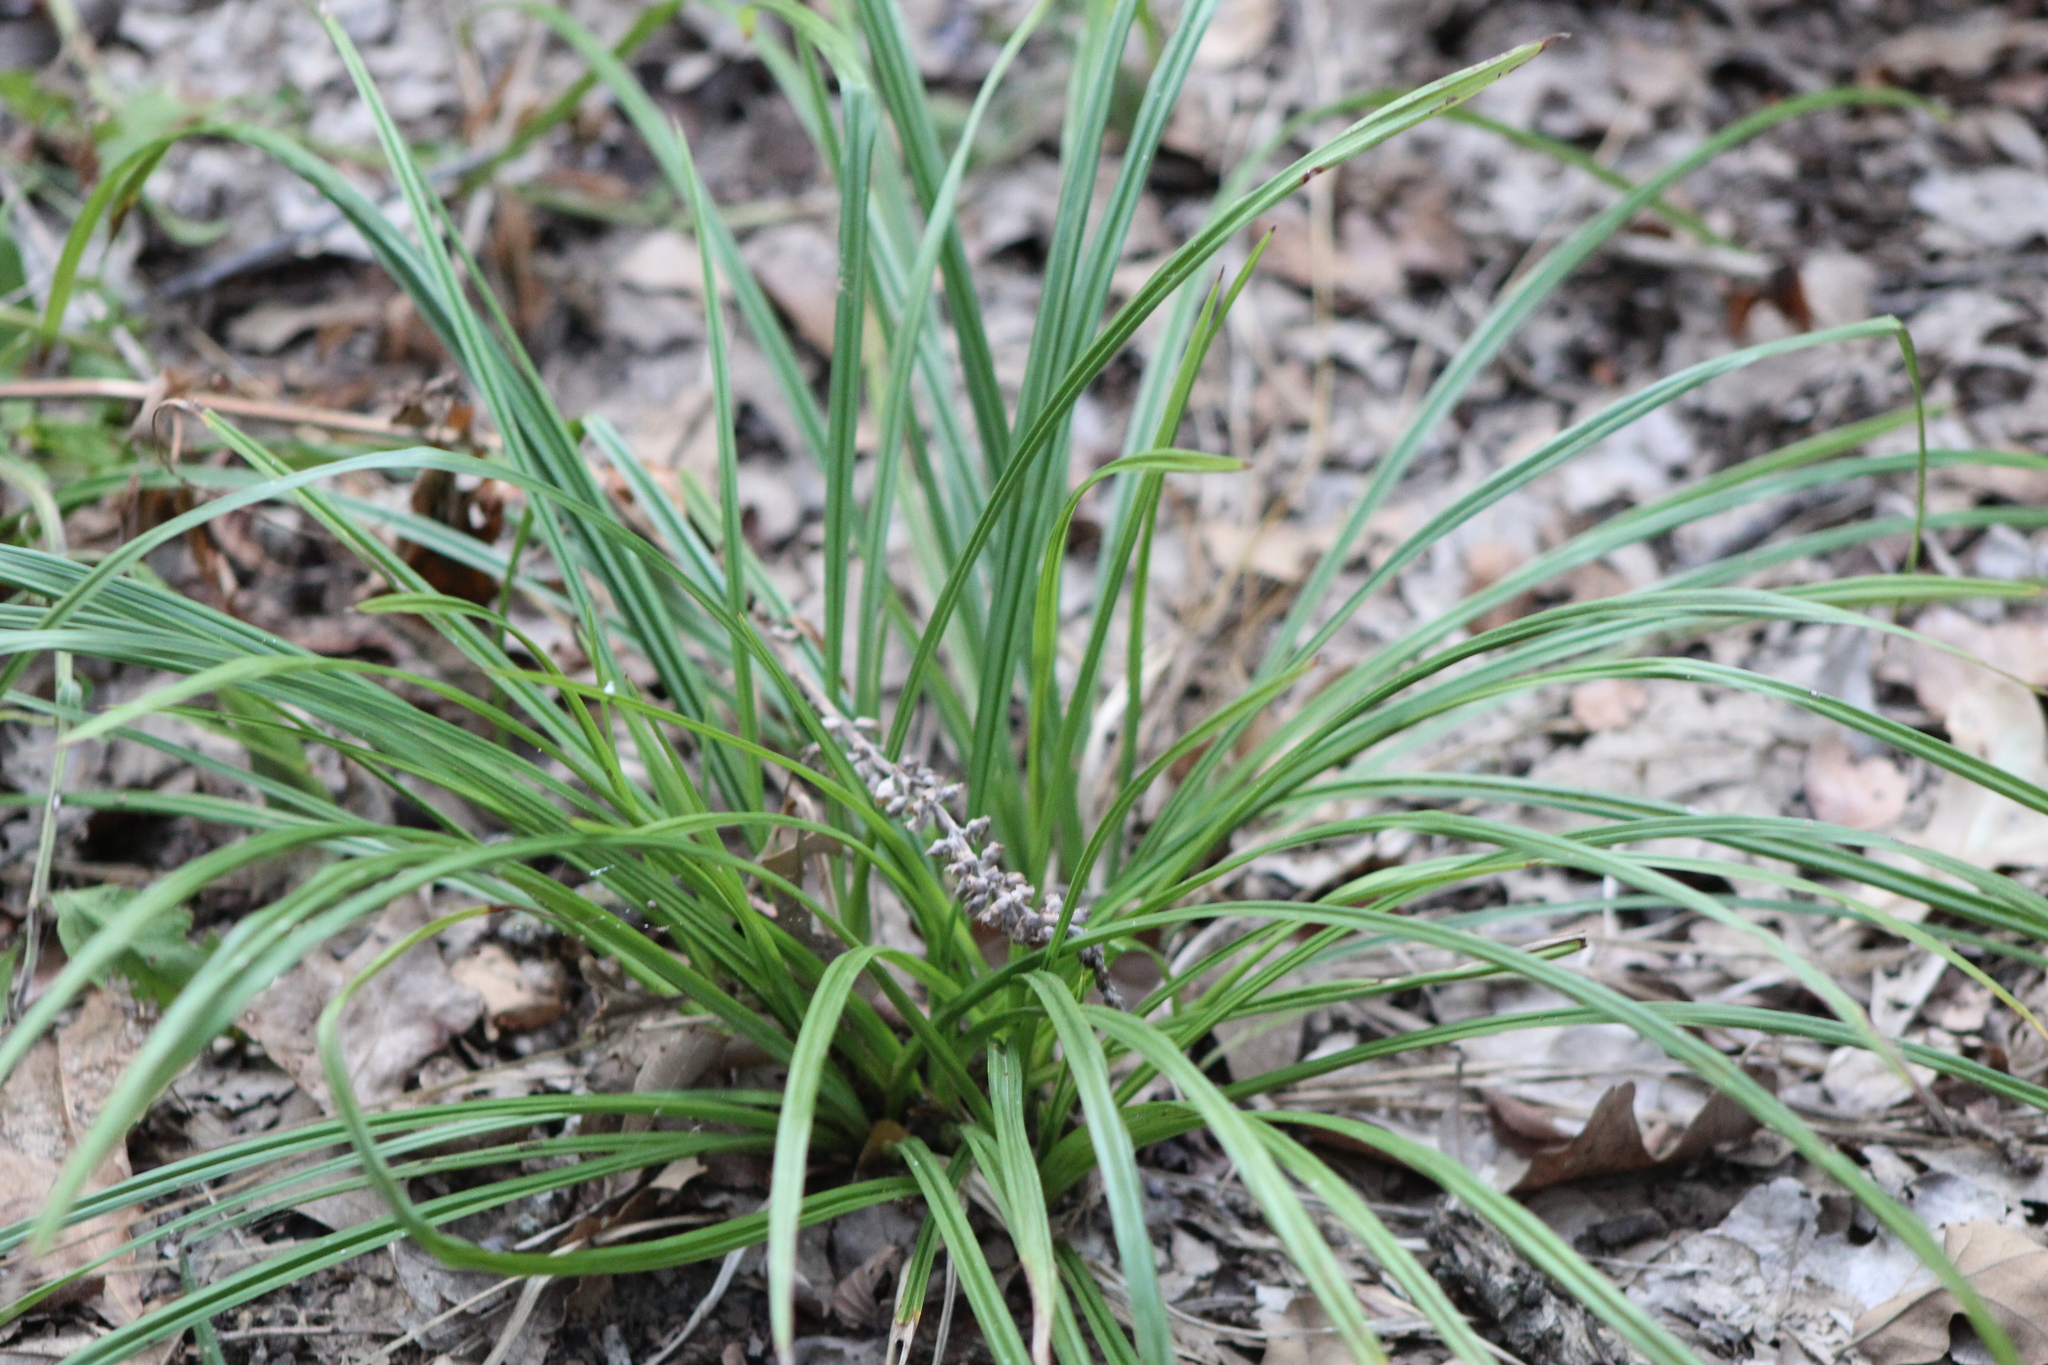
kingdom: Plantae
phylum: Tracheophyta
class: Liliopsida
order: Asparagales
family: Asparagaceae
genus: Liriope
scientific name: Liriope muscari
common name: Big blue lilyturf
